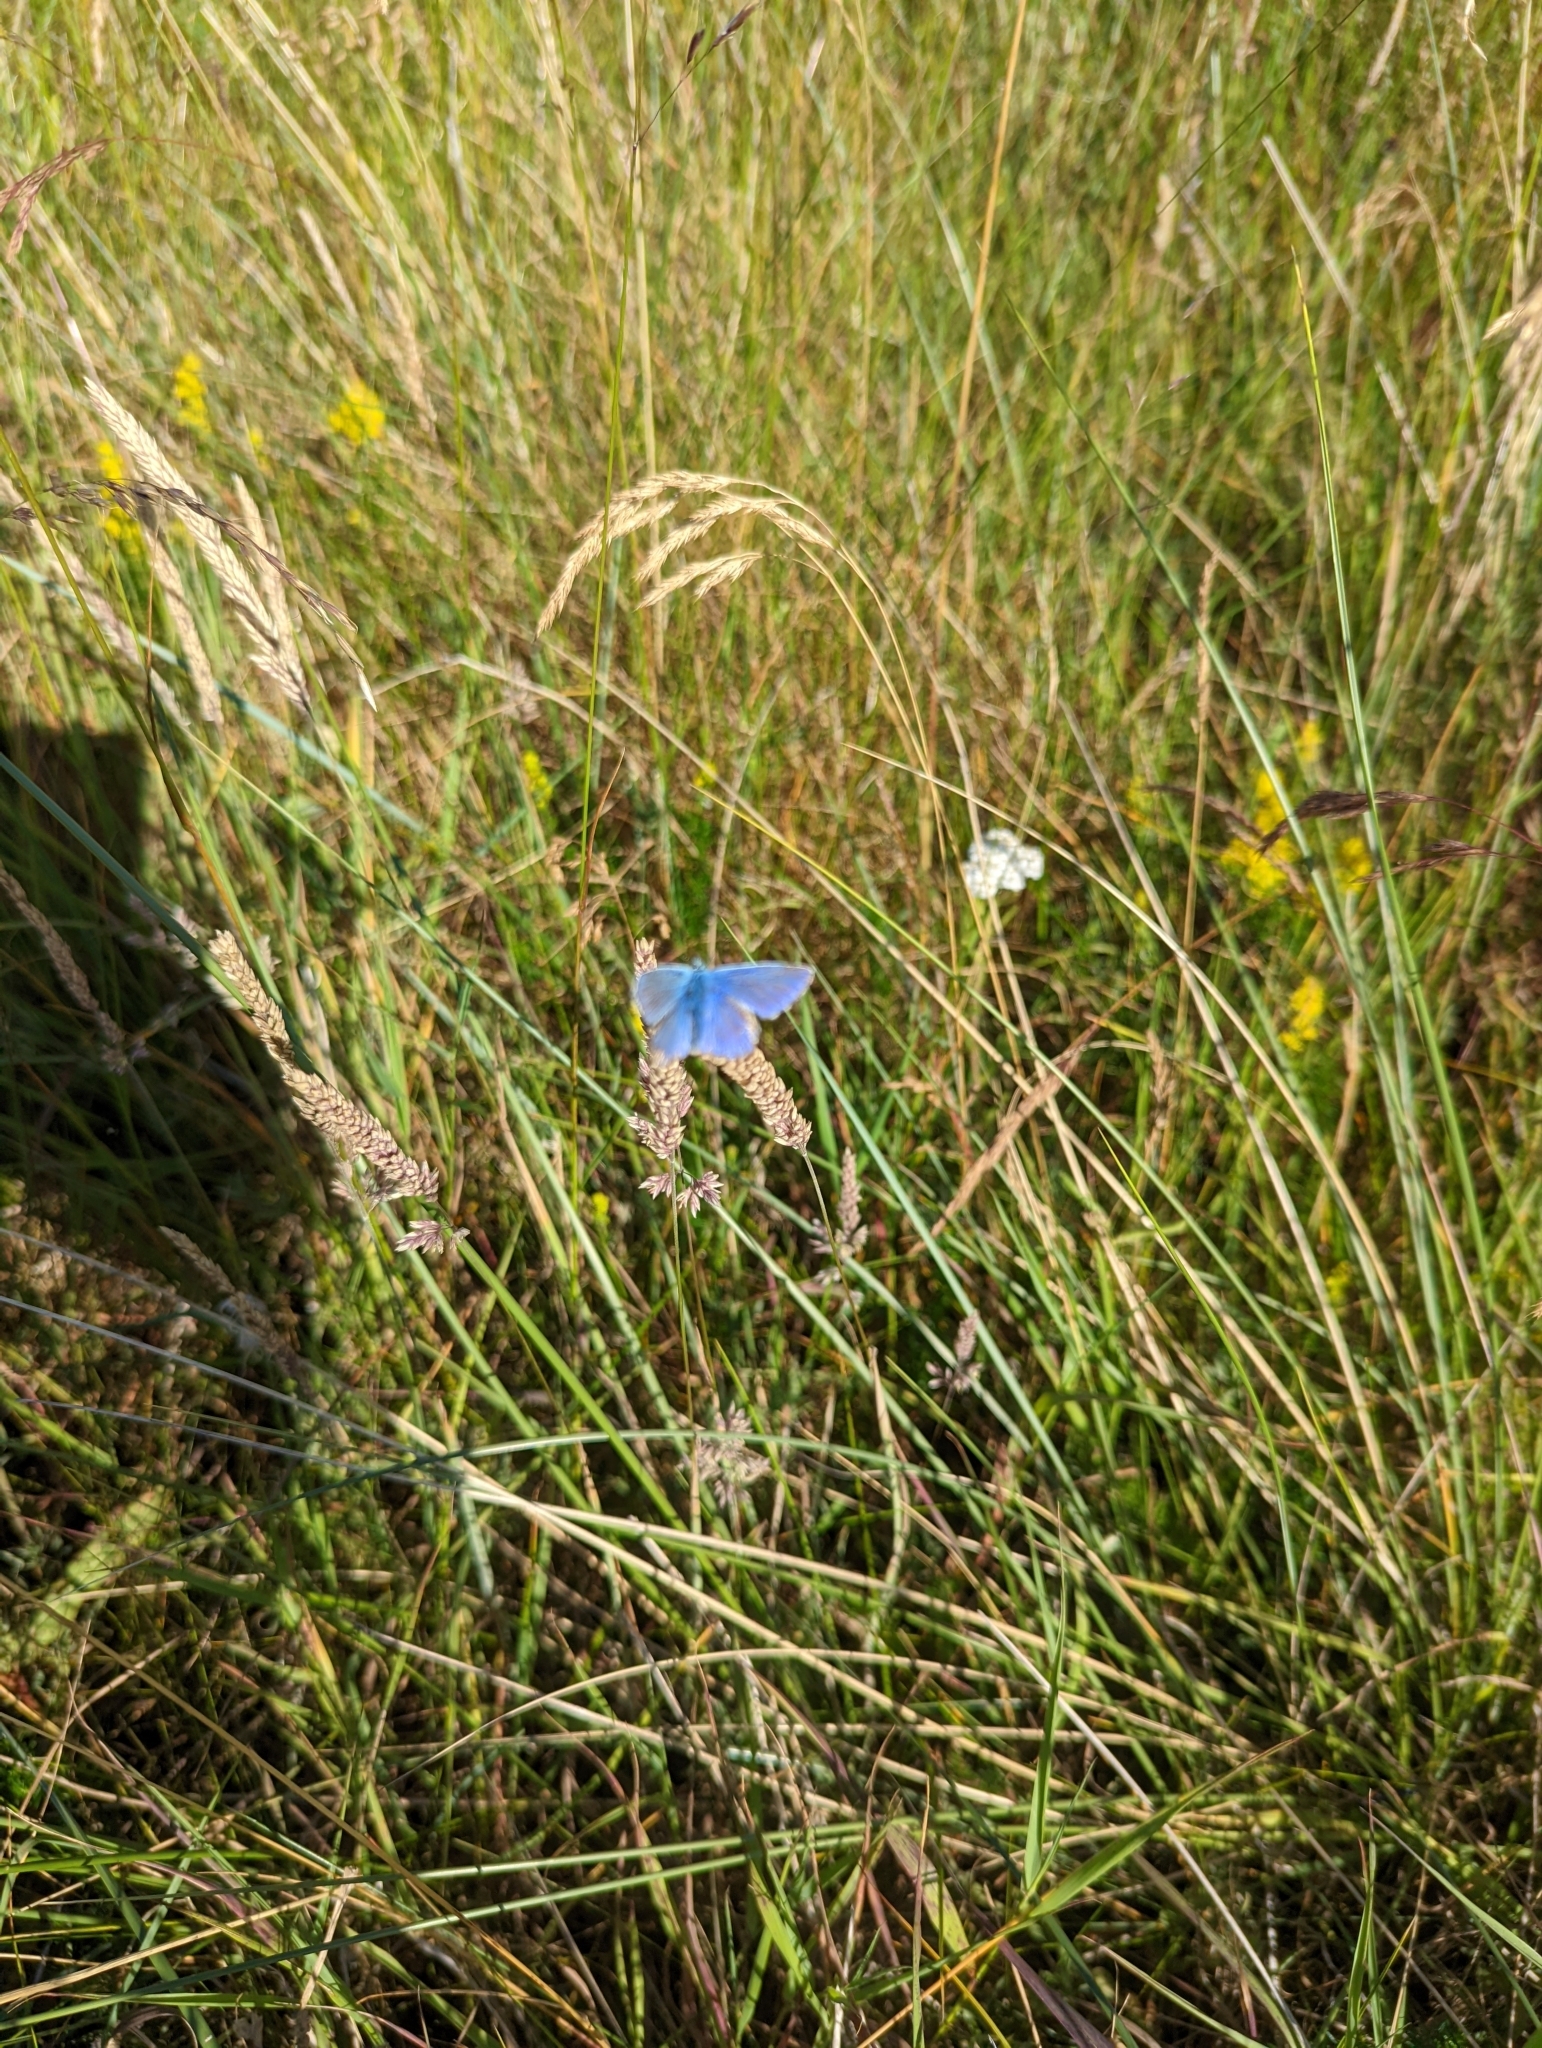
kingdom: Animalia
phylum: Arthropoda
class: Insecta
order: Lepidoptera
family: Lycaenidae
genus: Polyommatus
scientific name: Polyommatus icarus
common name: Common blue
